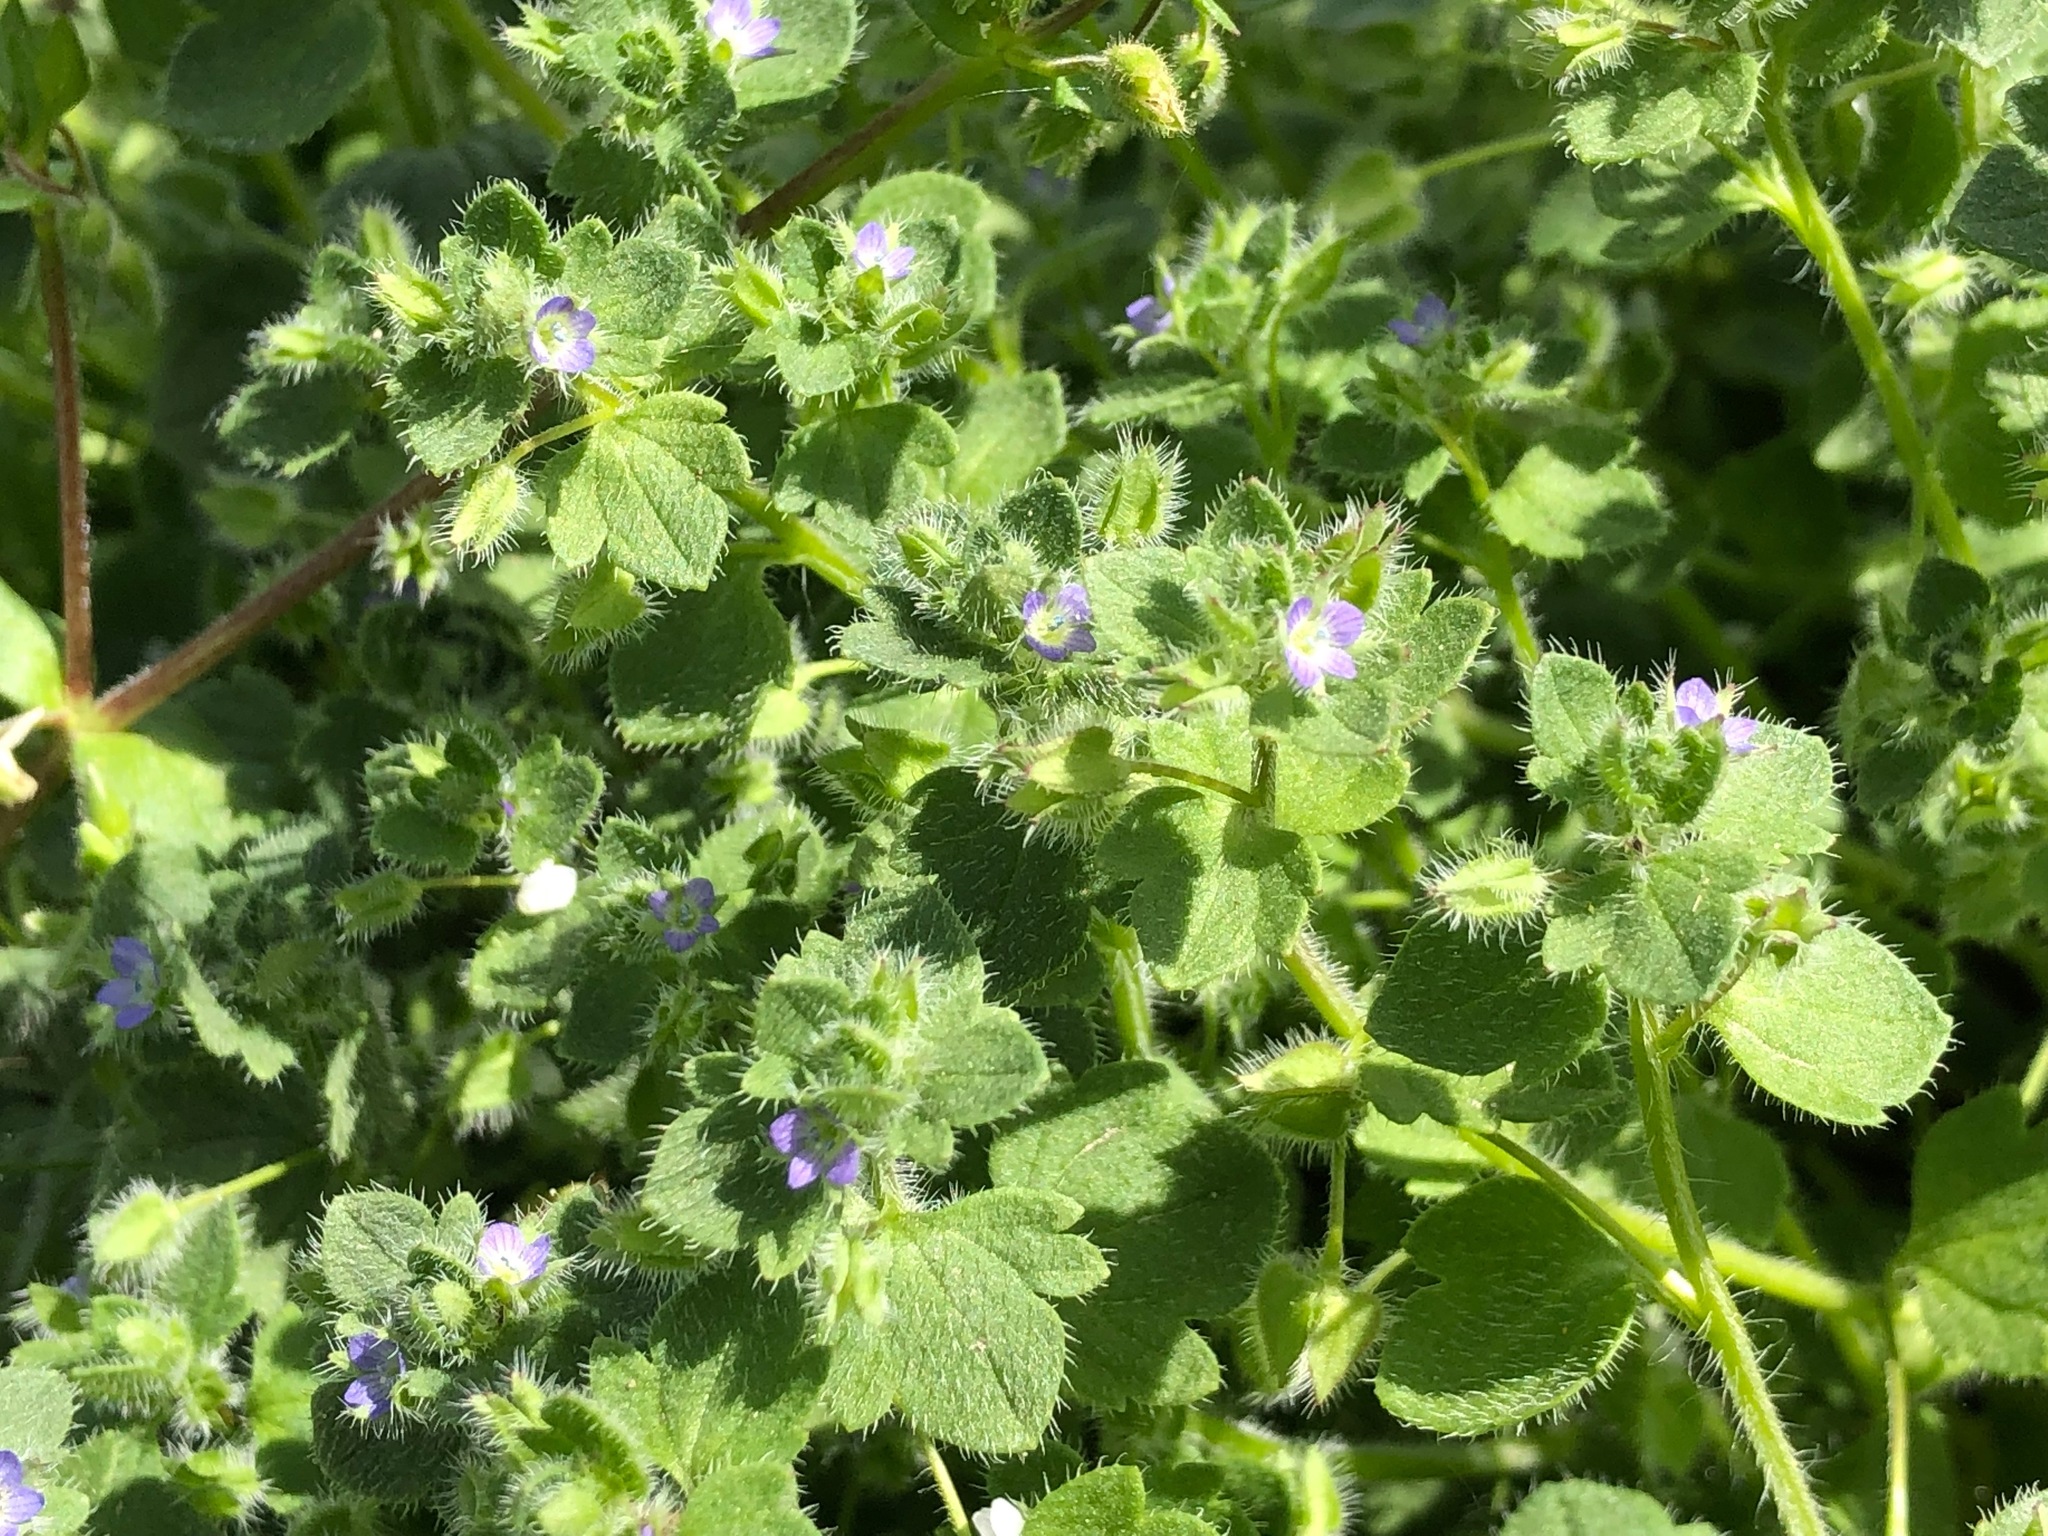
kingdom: Plantae
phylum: Tracheophyta
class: Magnoliopsida
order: Lamiales
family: Plantaginaceae
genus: Veronica
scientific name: Veronica hederifolia
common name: Ivy-leaved speedwell
